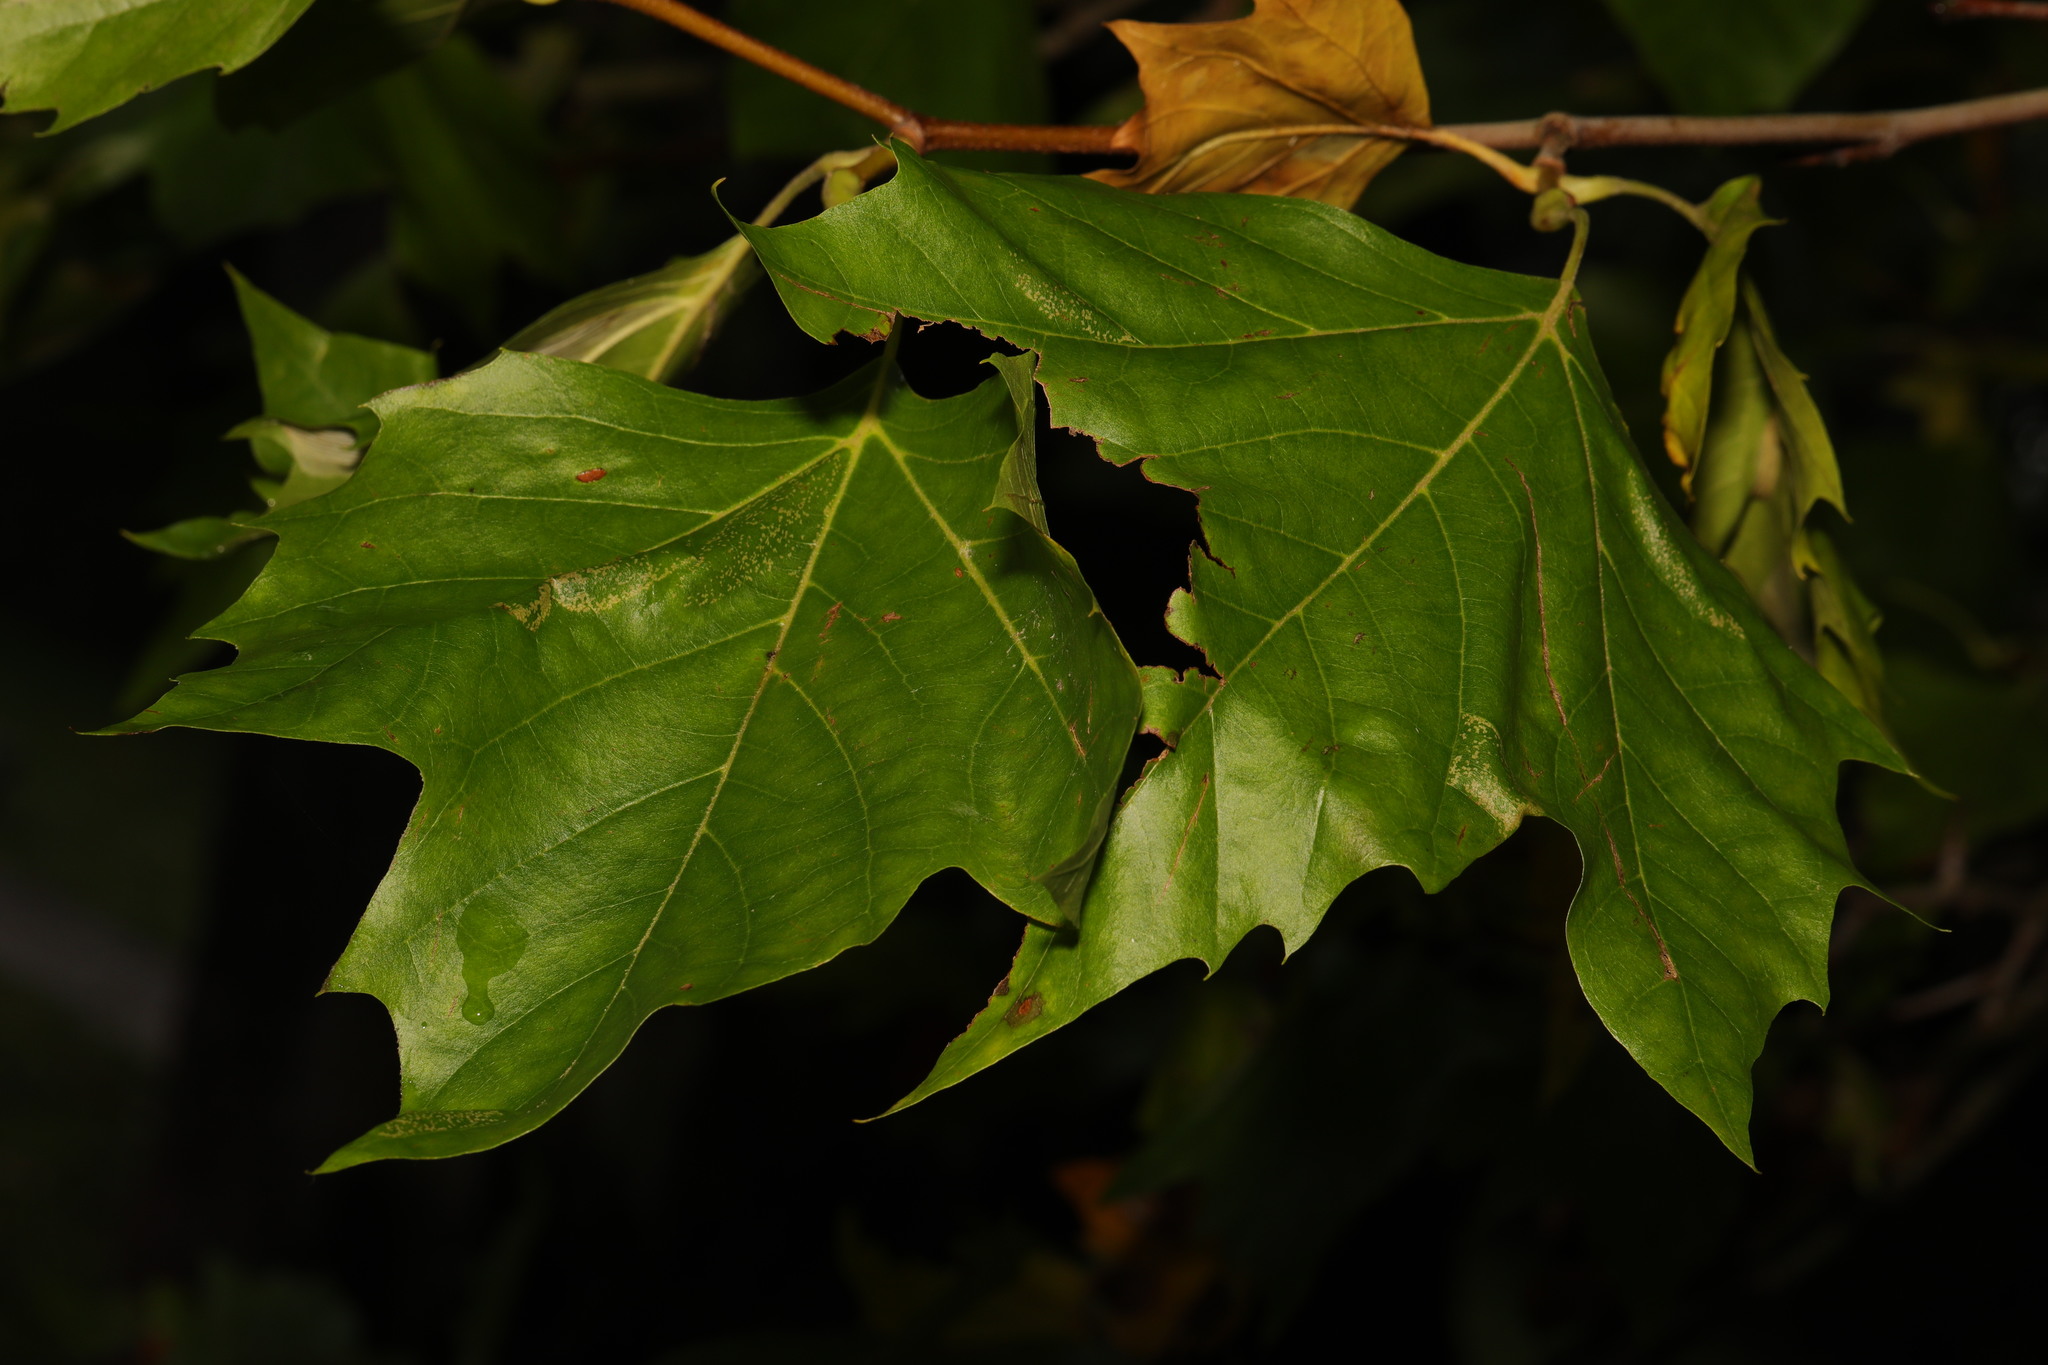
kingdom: Plantae
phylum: Tracheophyta
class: Magnoliopsida
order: Proteales
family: Platanaceae
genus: Platanus
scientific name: Platanus hispanica
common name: London plane
